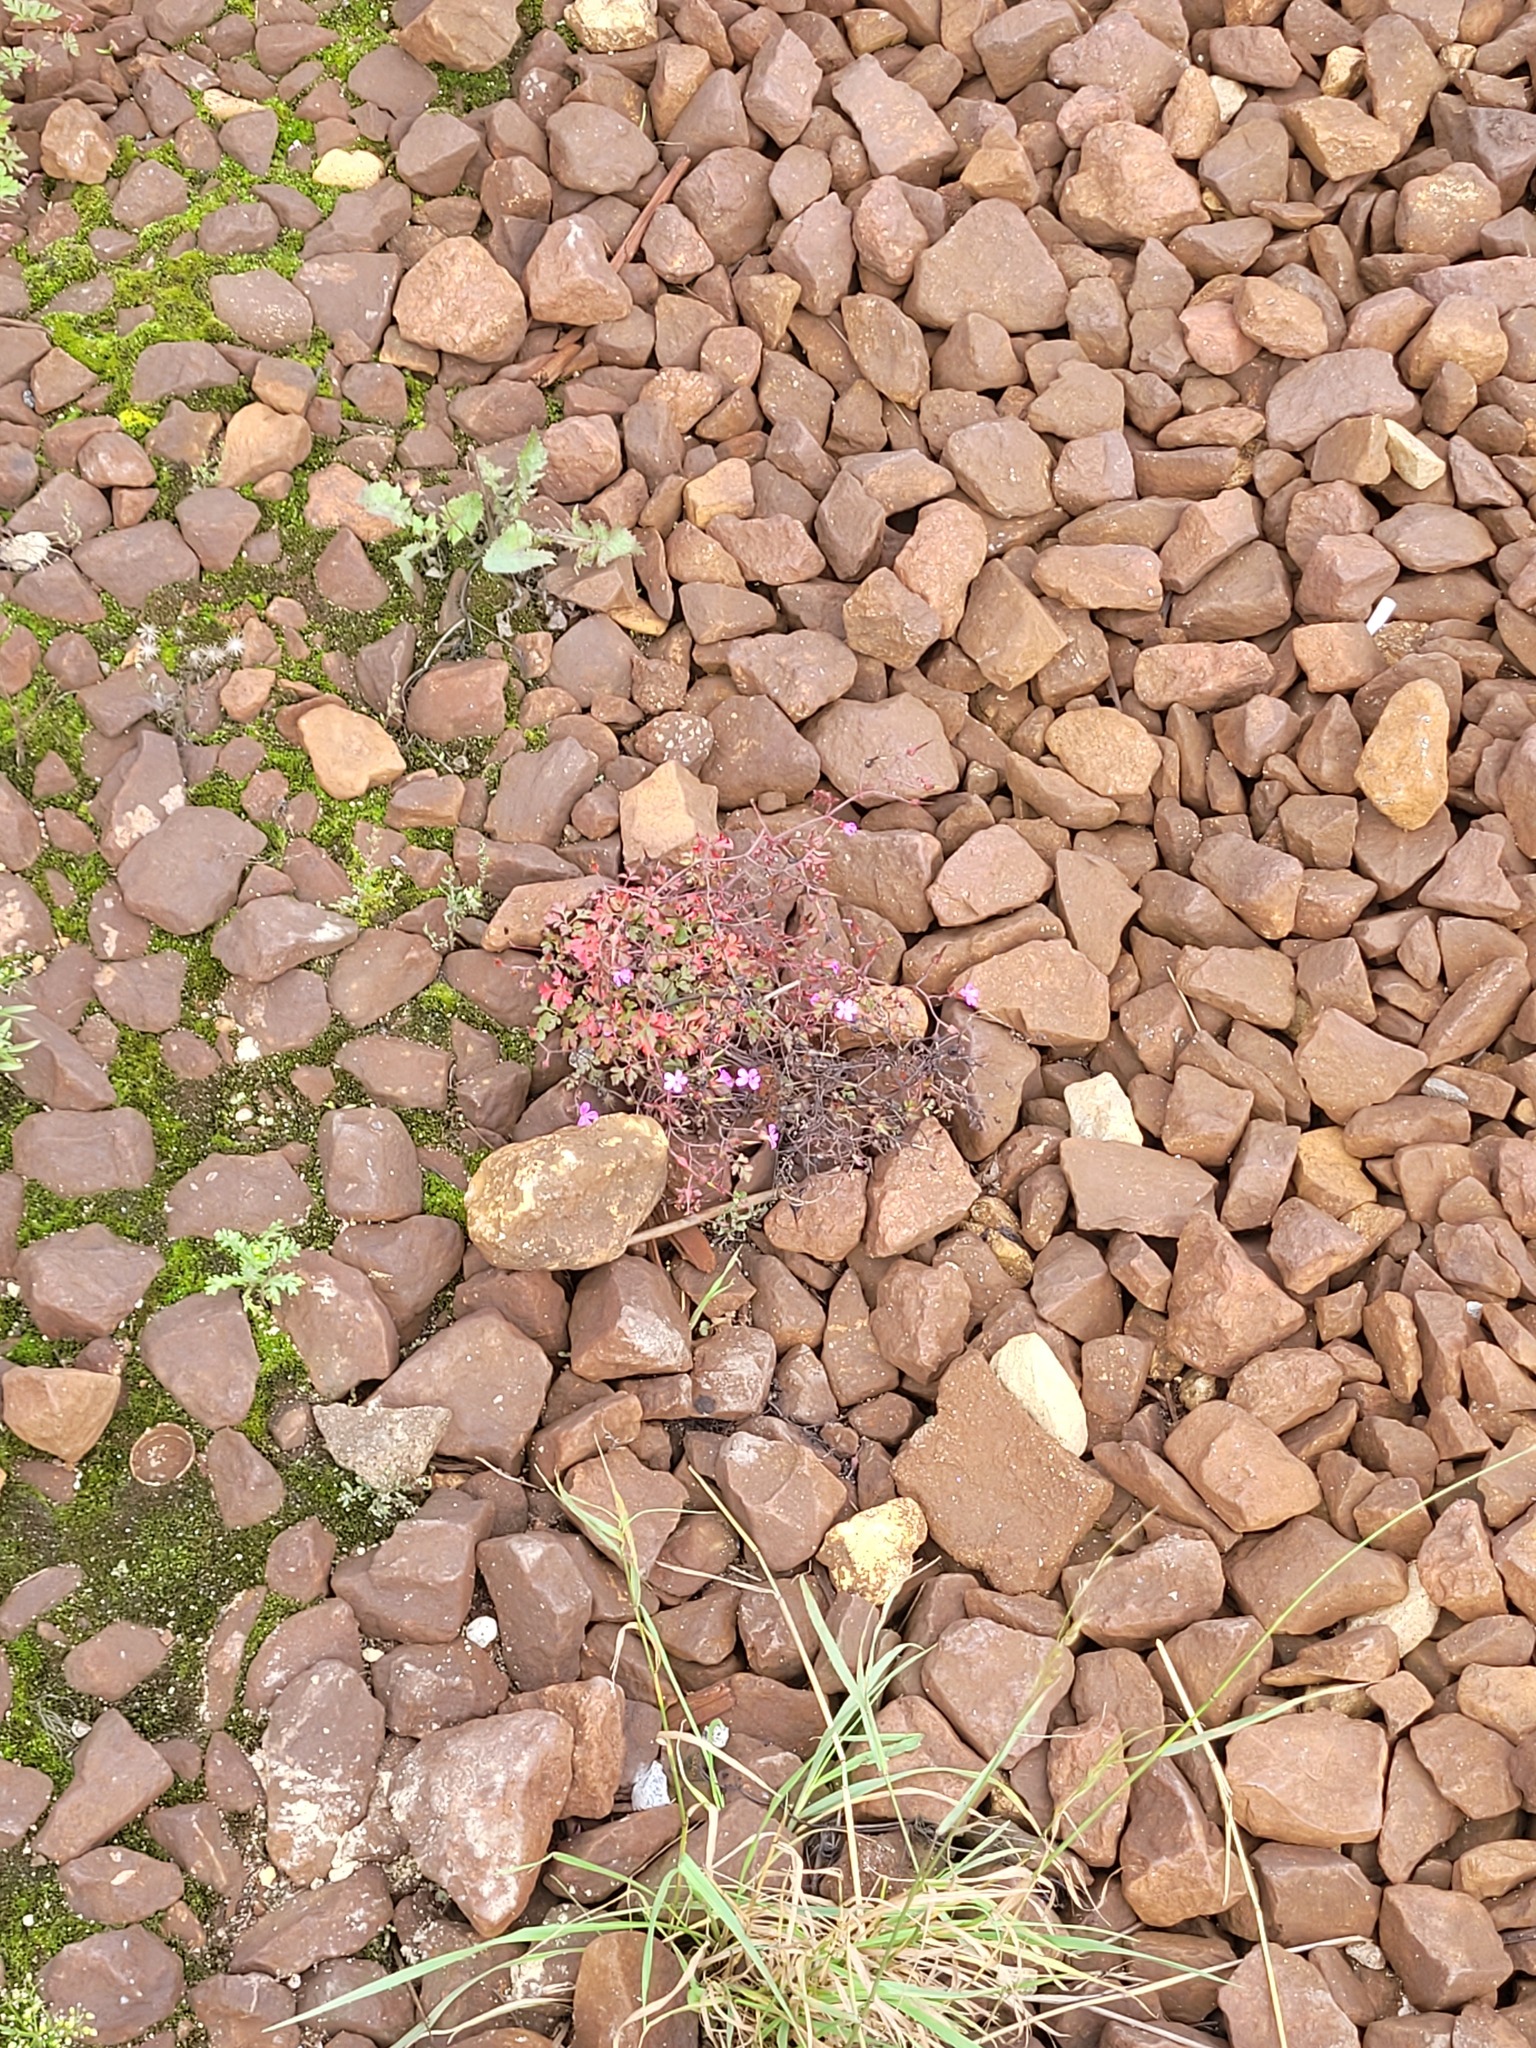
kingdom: Plantae
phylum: Tracheophyta
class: Magnoliopsida
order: Geraniales
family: Geraniaceae
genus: Geranium
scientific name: Geranium robertianum
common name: Herb-robert
